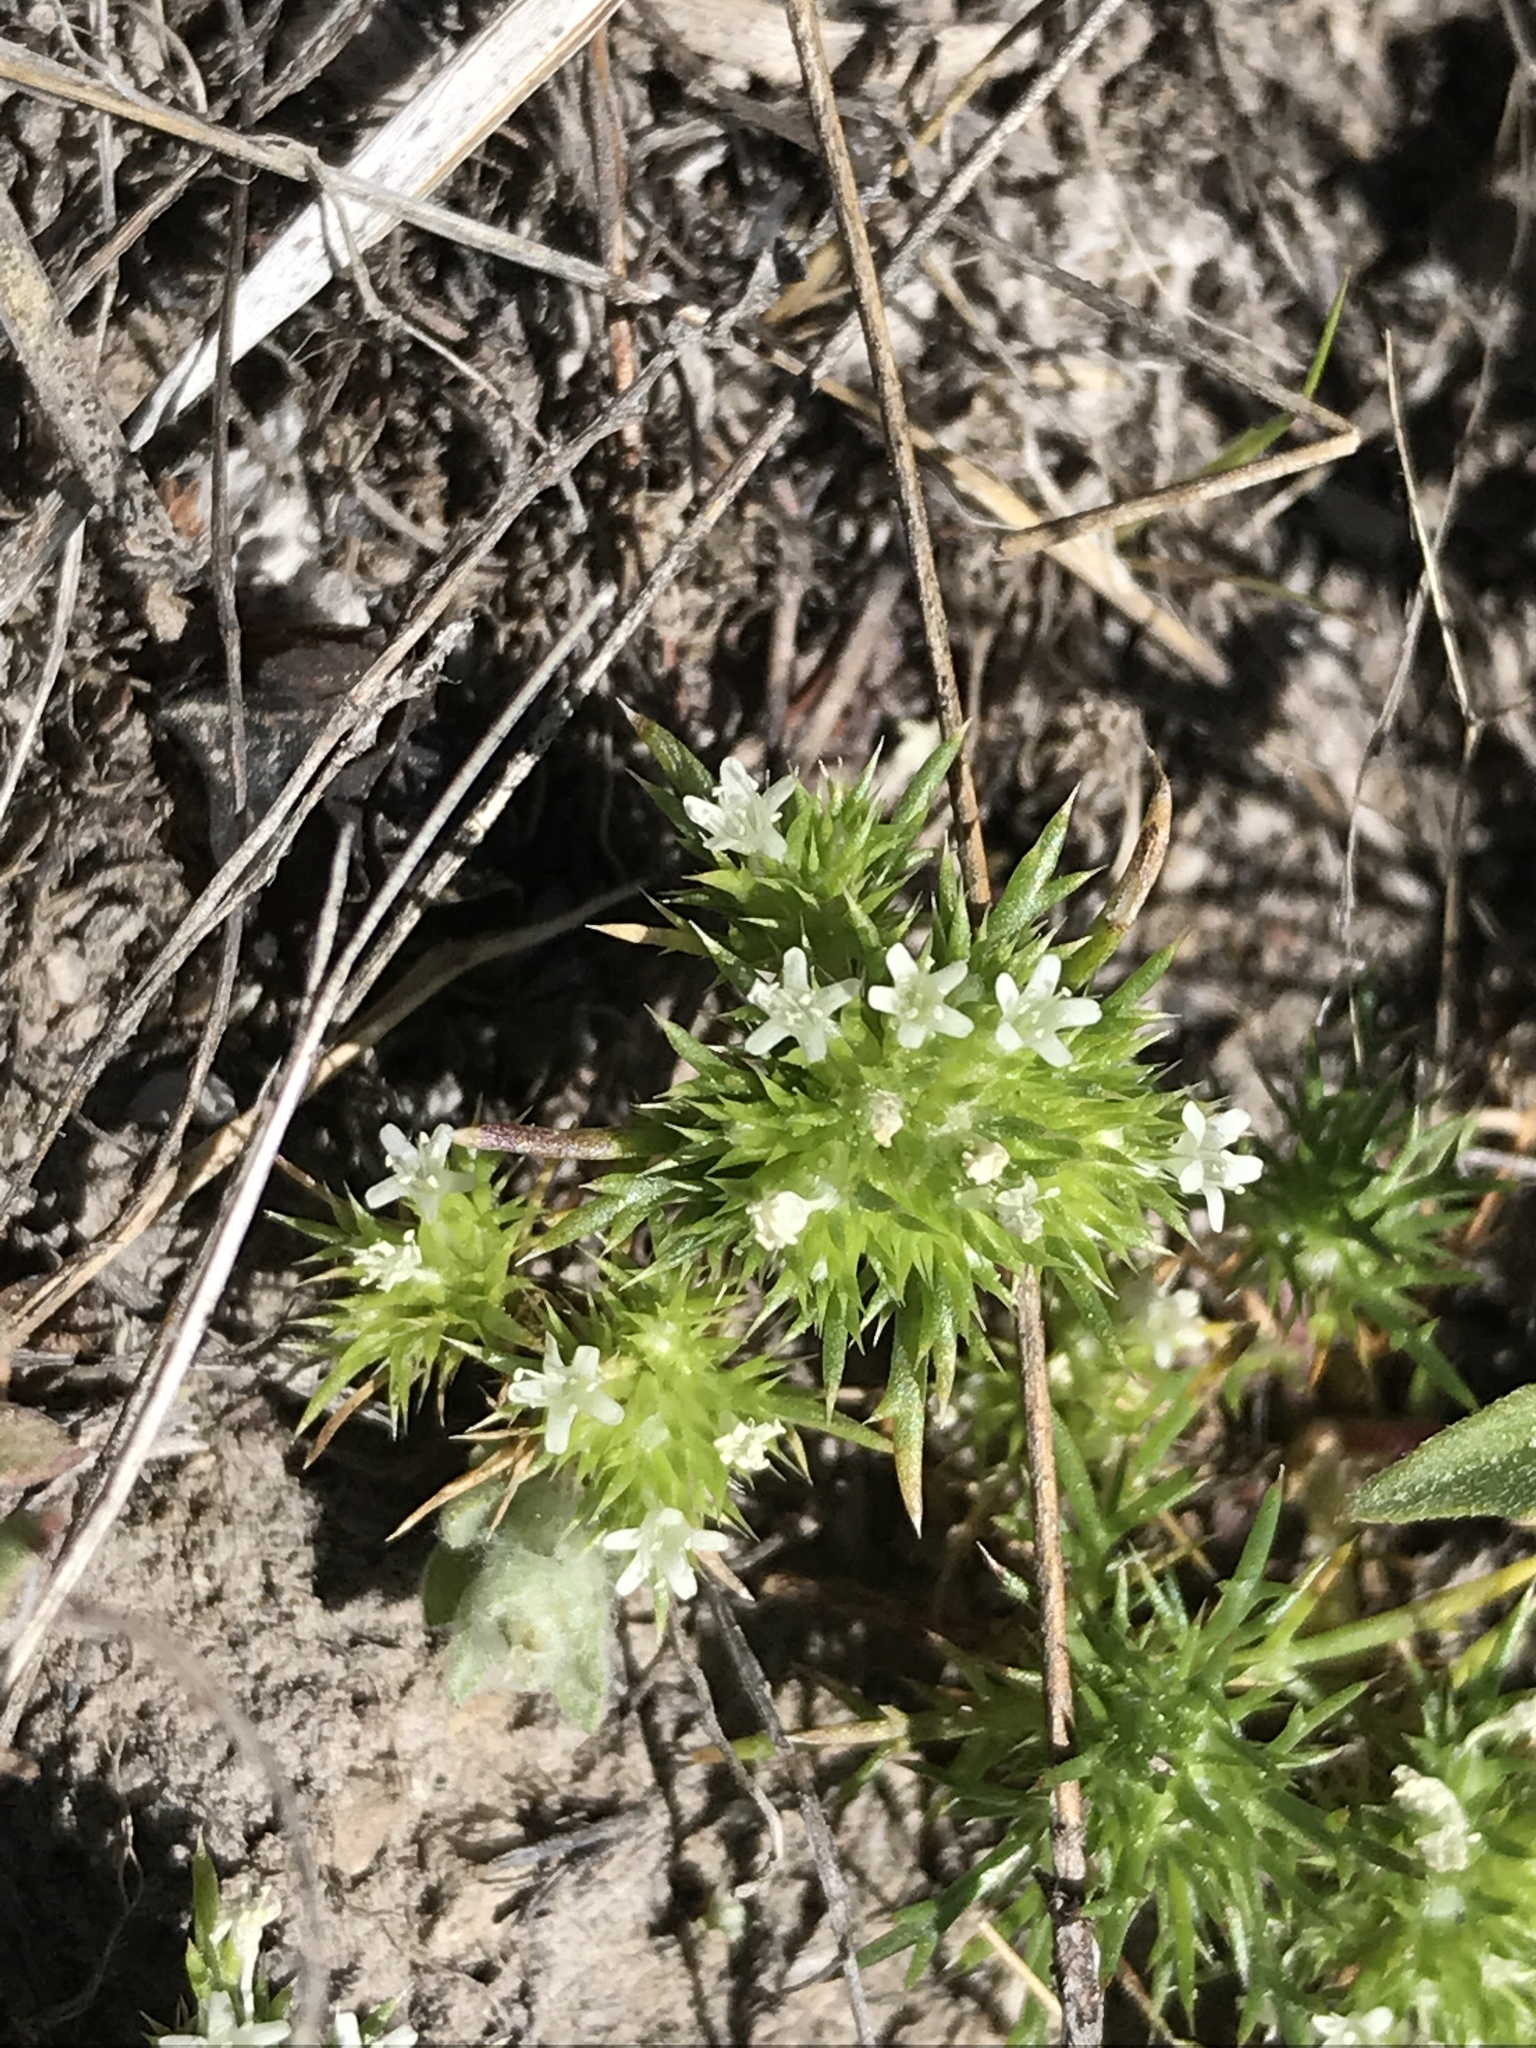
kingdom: Plantae
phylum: Tracheophyta
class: Magnoliopsida
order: Ericales
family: Polemoniaceae
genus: Navarretia
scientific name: Navarretia leucocephala
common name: White-flowered navarretia
